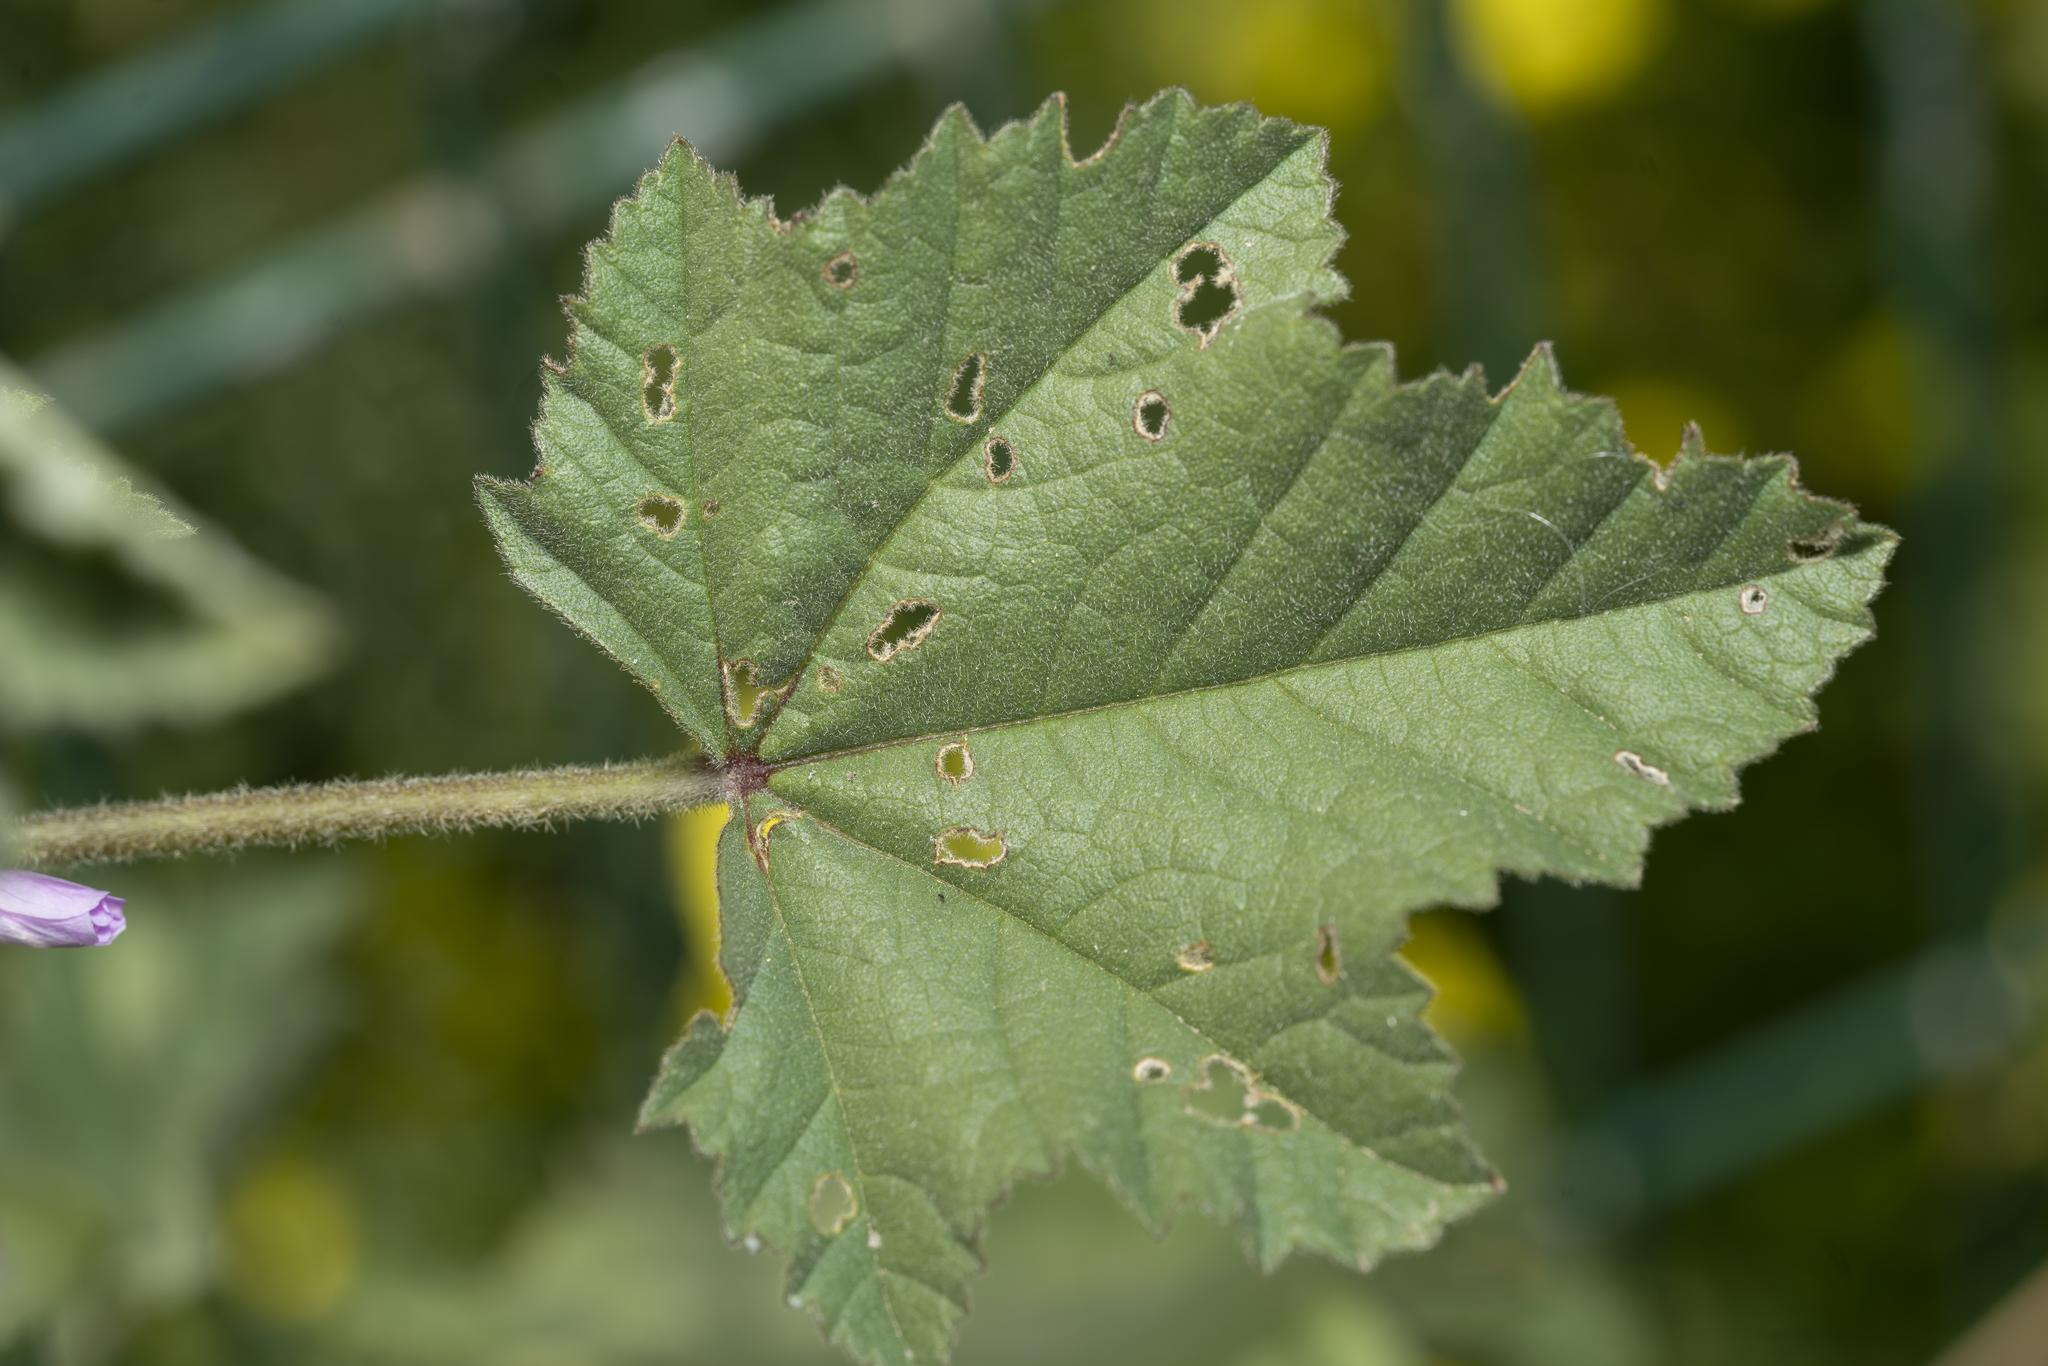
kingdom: Plantae
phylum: Tracheophyta
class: Magnoliopsida
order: Malvales
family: Malvaceae
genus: Malva
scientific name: Malva multiflora
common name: Cheeseweed
